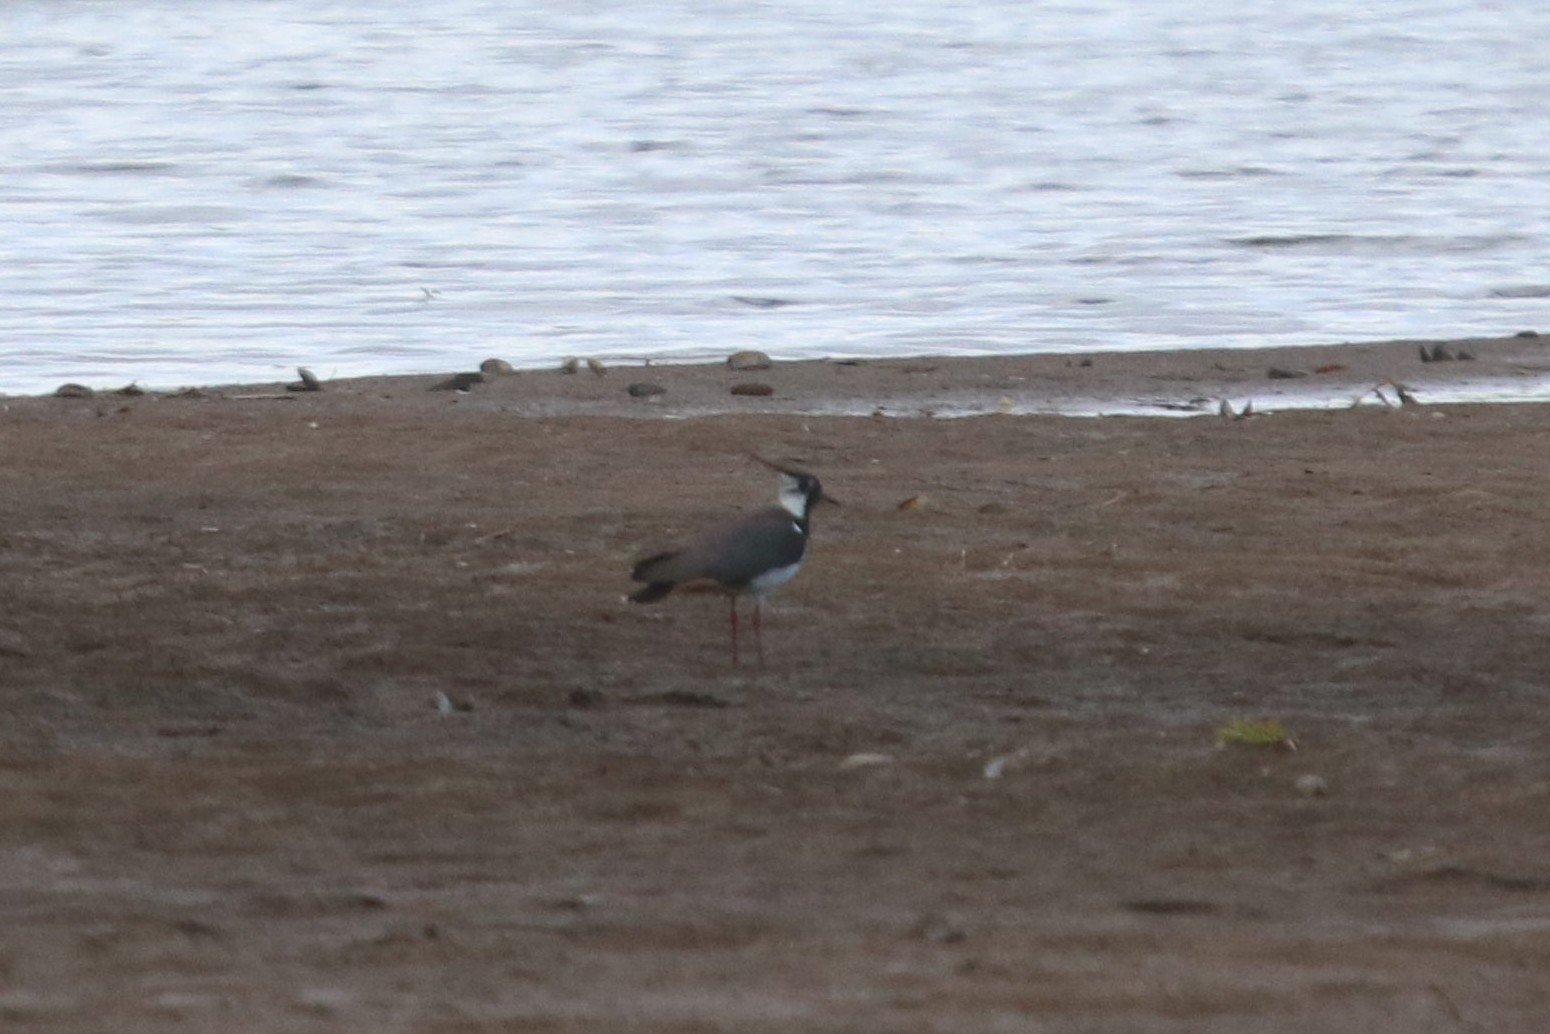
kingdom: Animalia
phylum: Chordata
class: Aves
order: Charadriiformes
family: Charadriidae
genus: Vanellus
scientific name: Vanellus vanellus
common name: Northern lapwing
